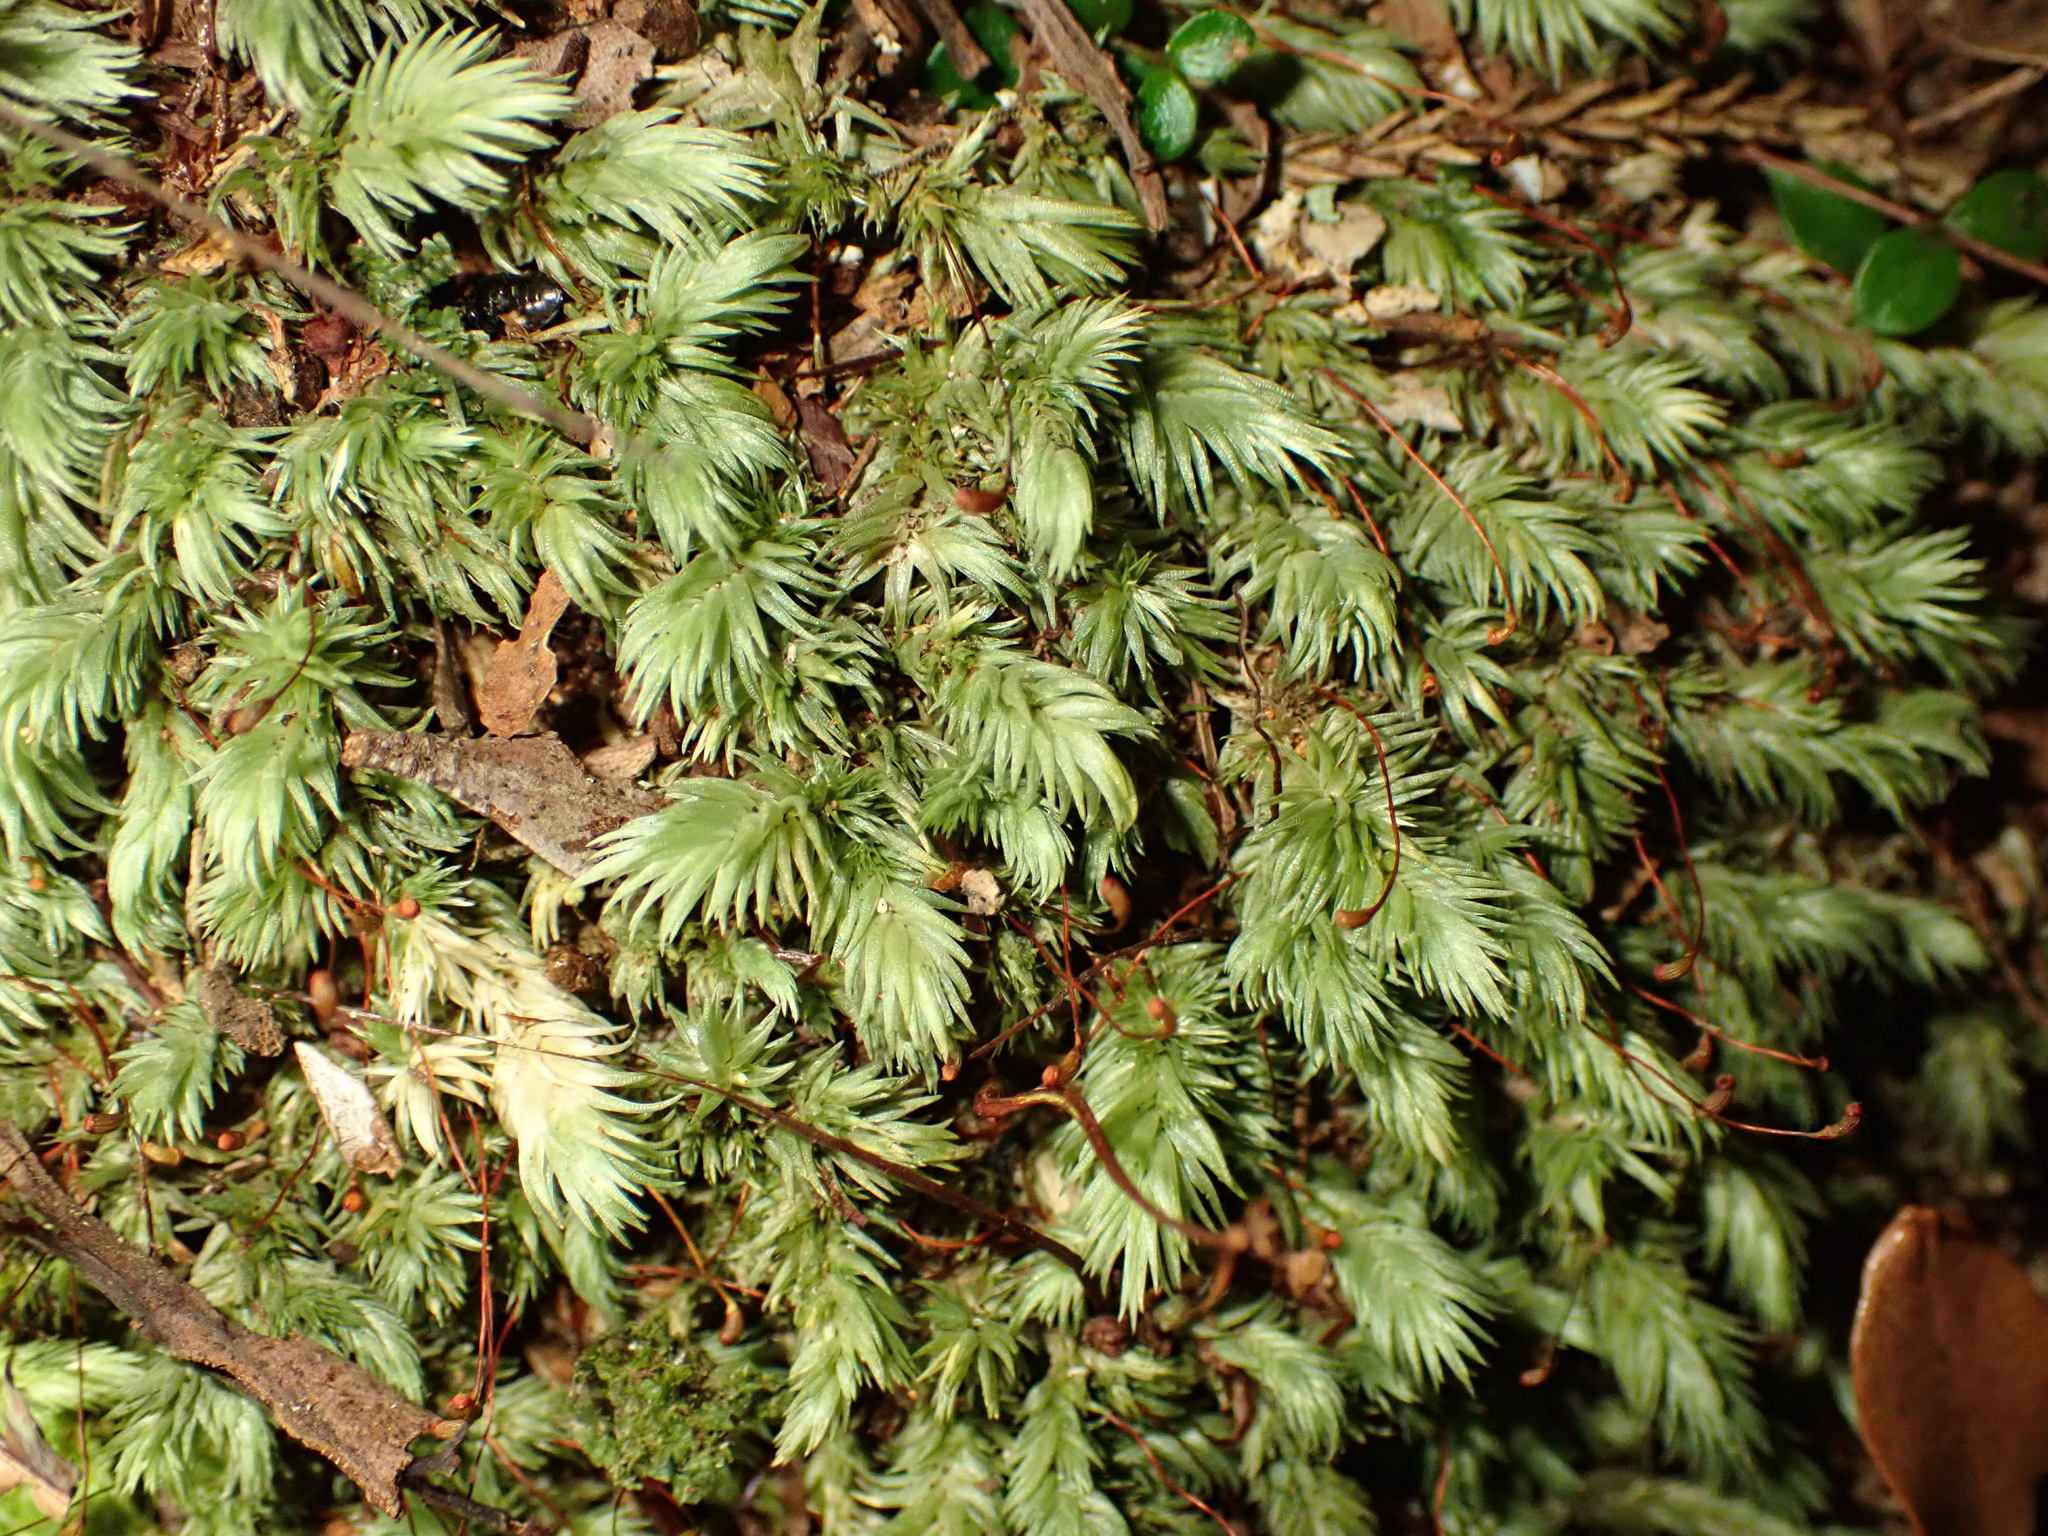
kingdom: Plantae
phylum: Bryophyta
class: Bryopsida
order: Dicranales
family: Leucobryaceae
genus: Leucobryum
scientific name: Leucobryum javense
